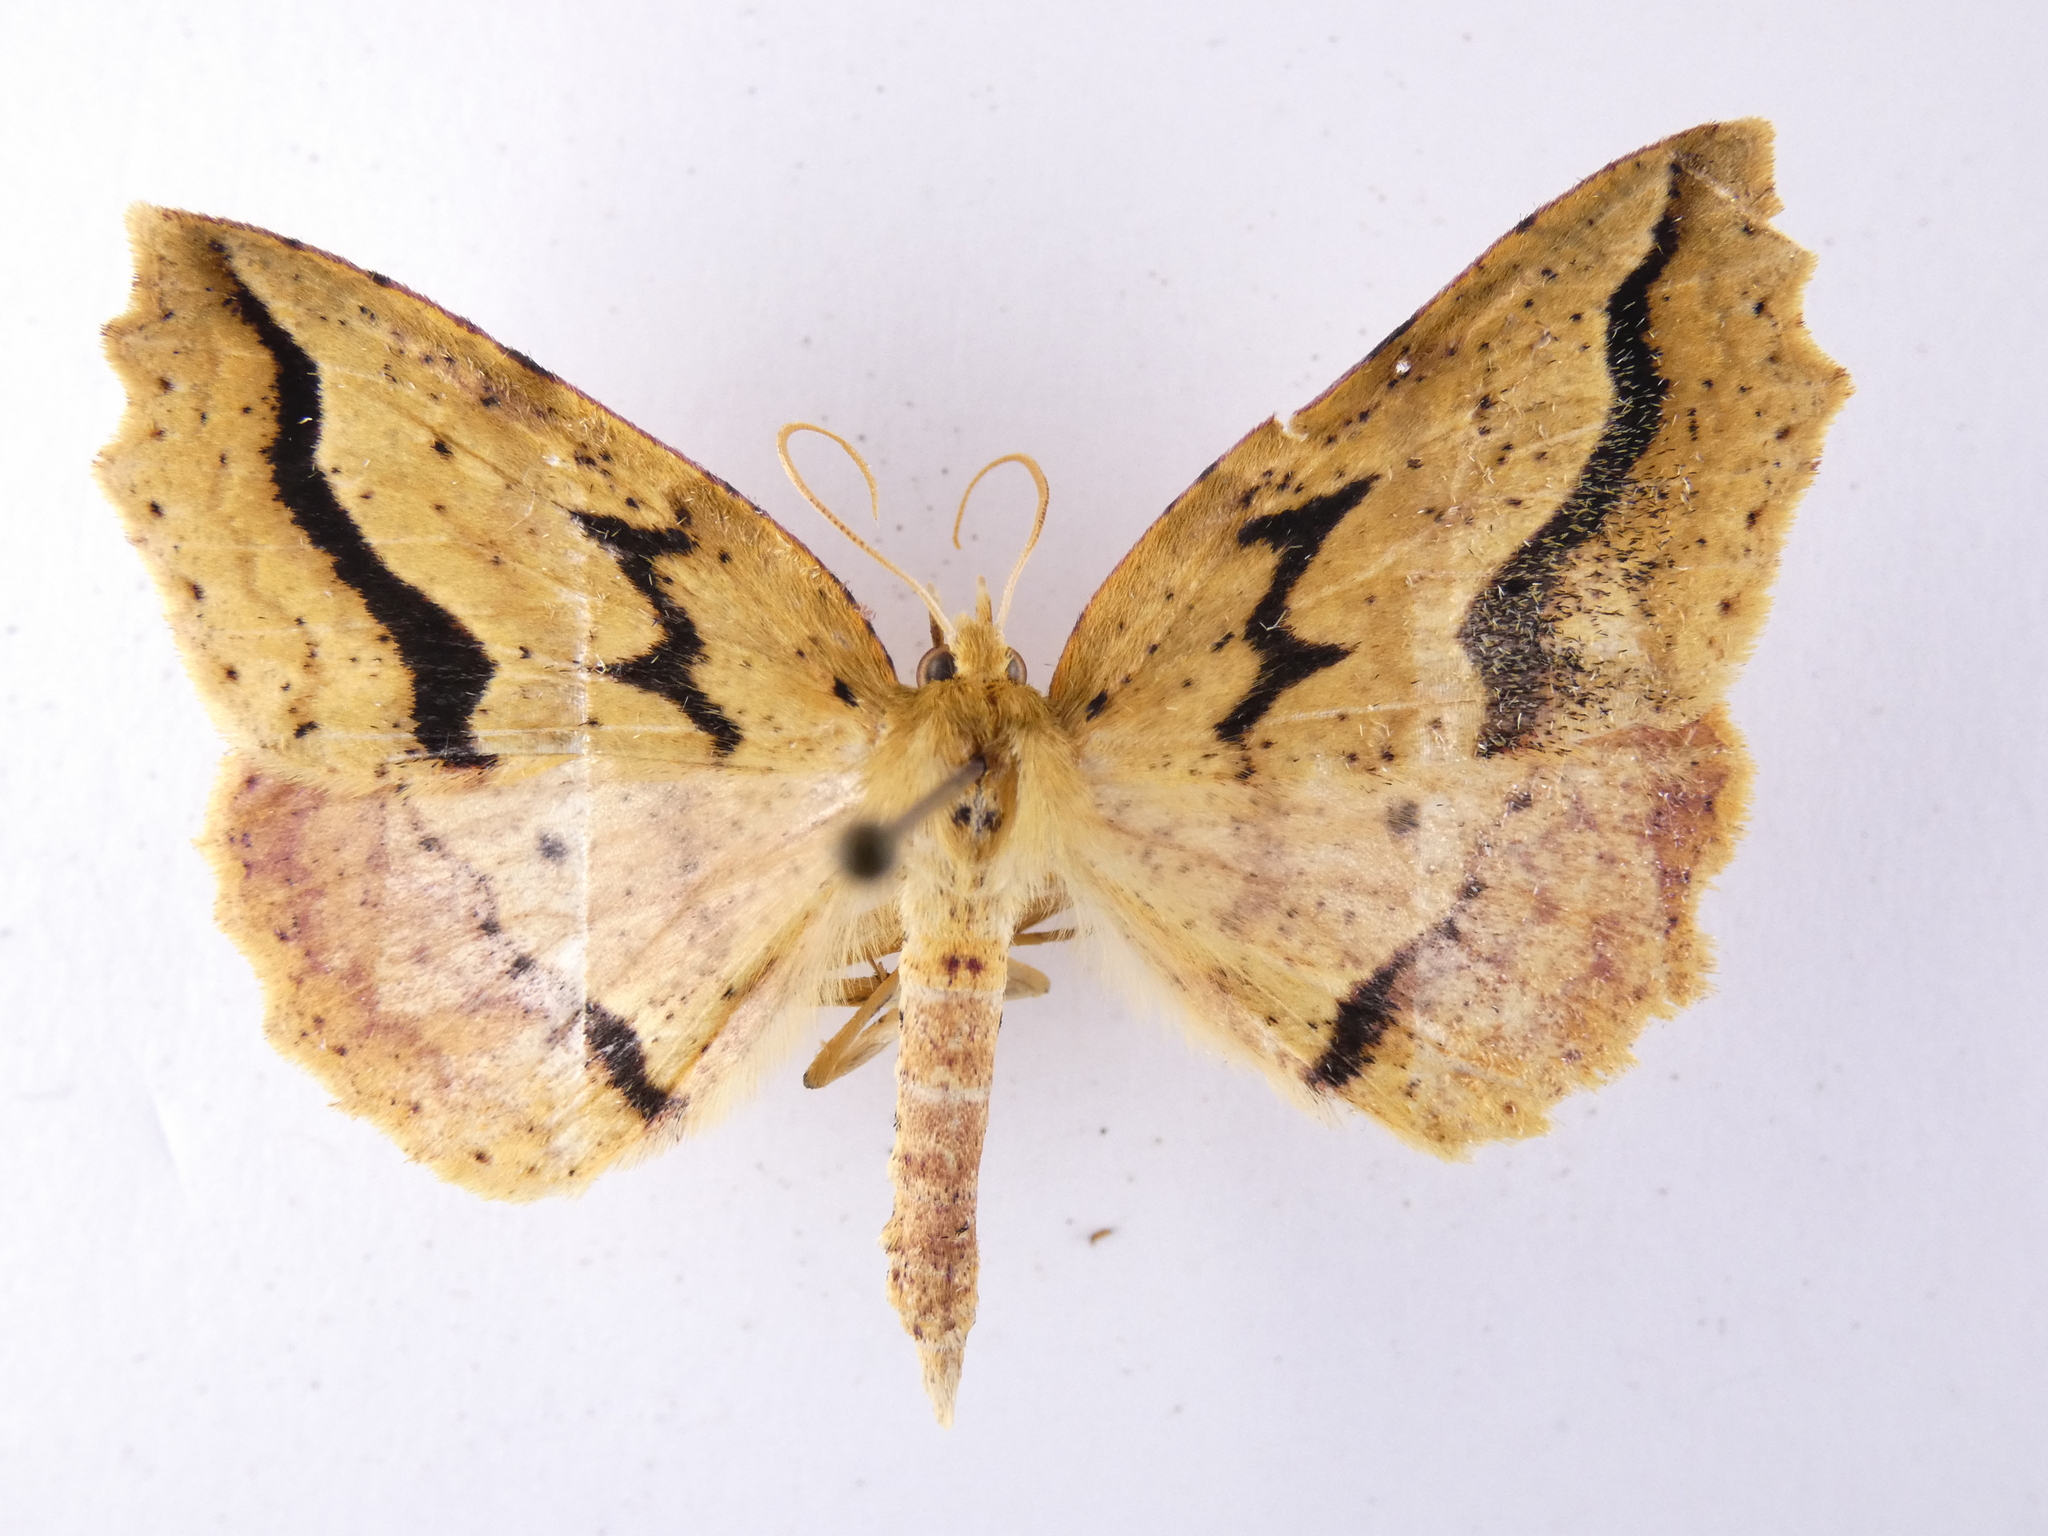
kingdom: Animalia
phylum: Arthropoda
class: Insecta
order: Lepidoptera
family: Geometridae
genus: Ischalis
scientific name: Ischalis variabilis
